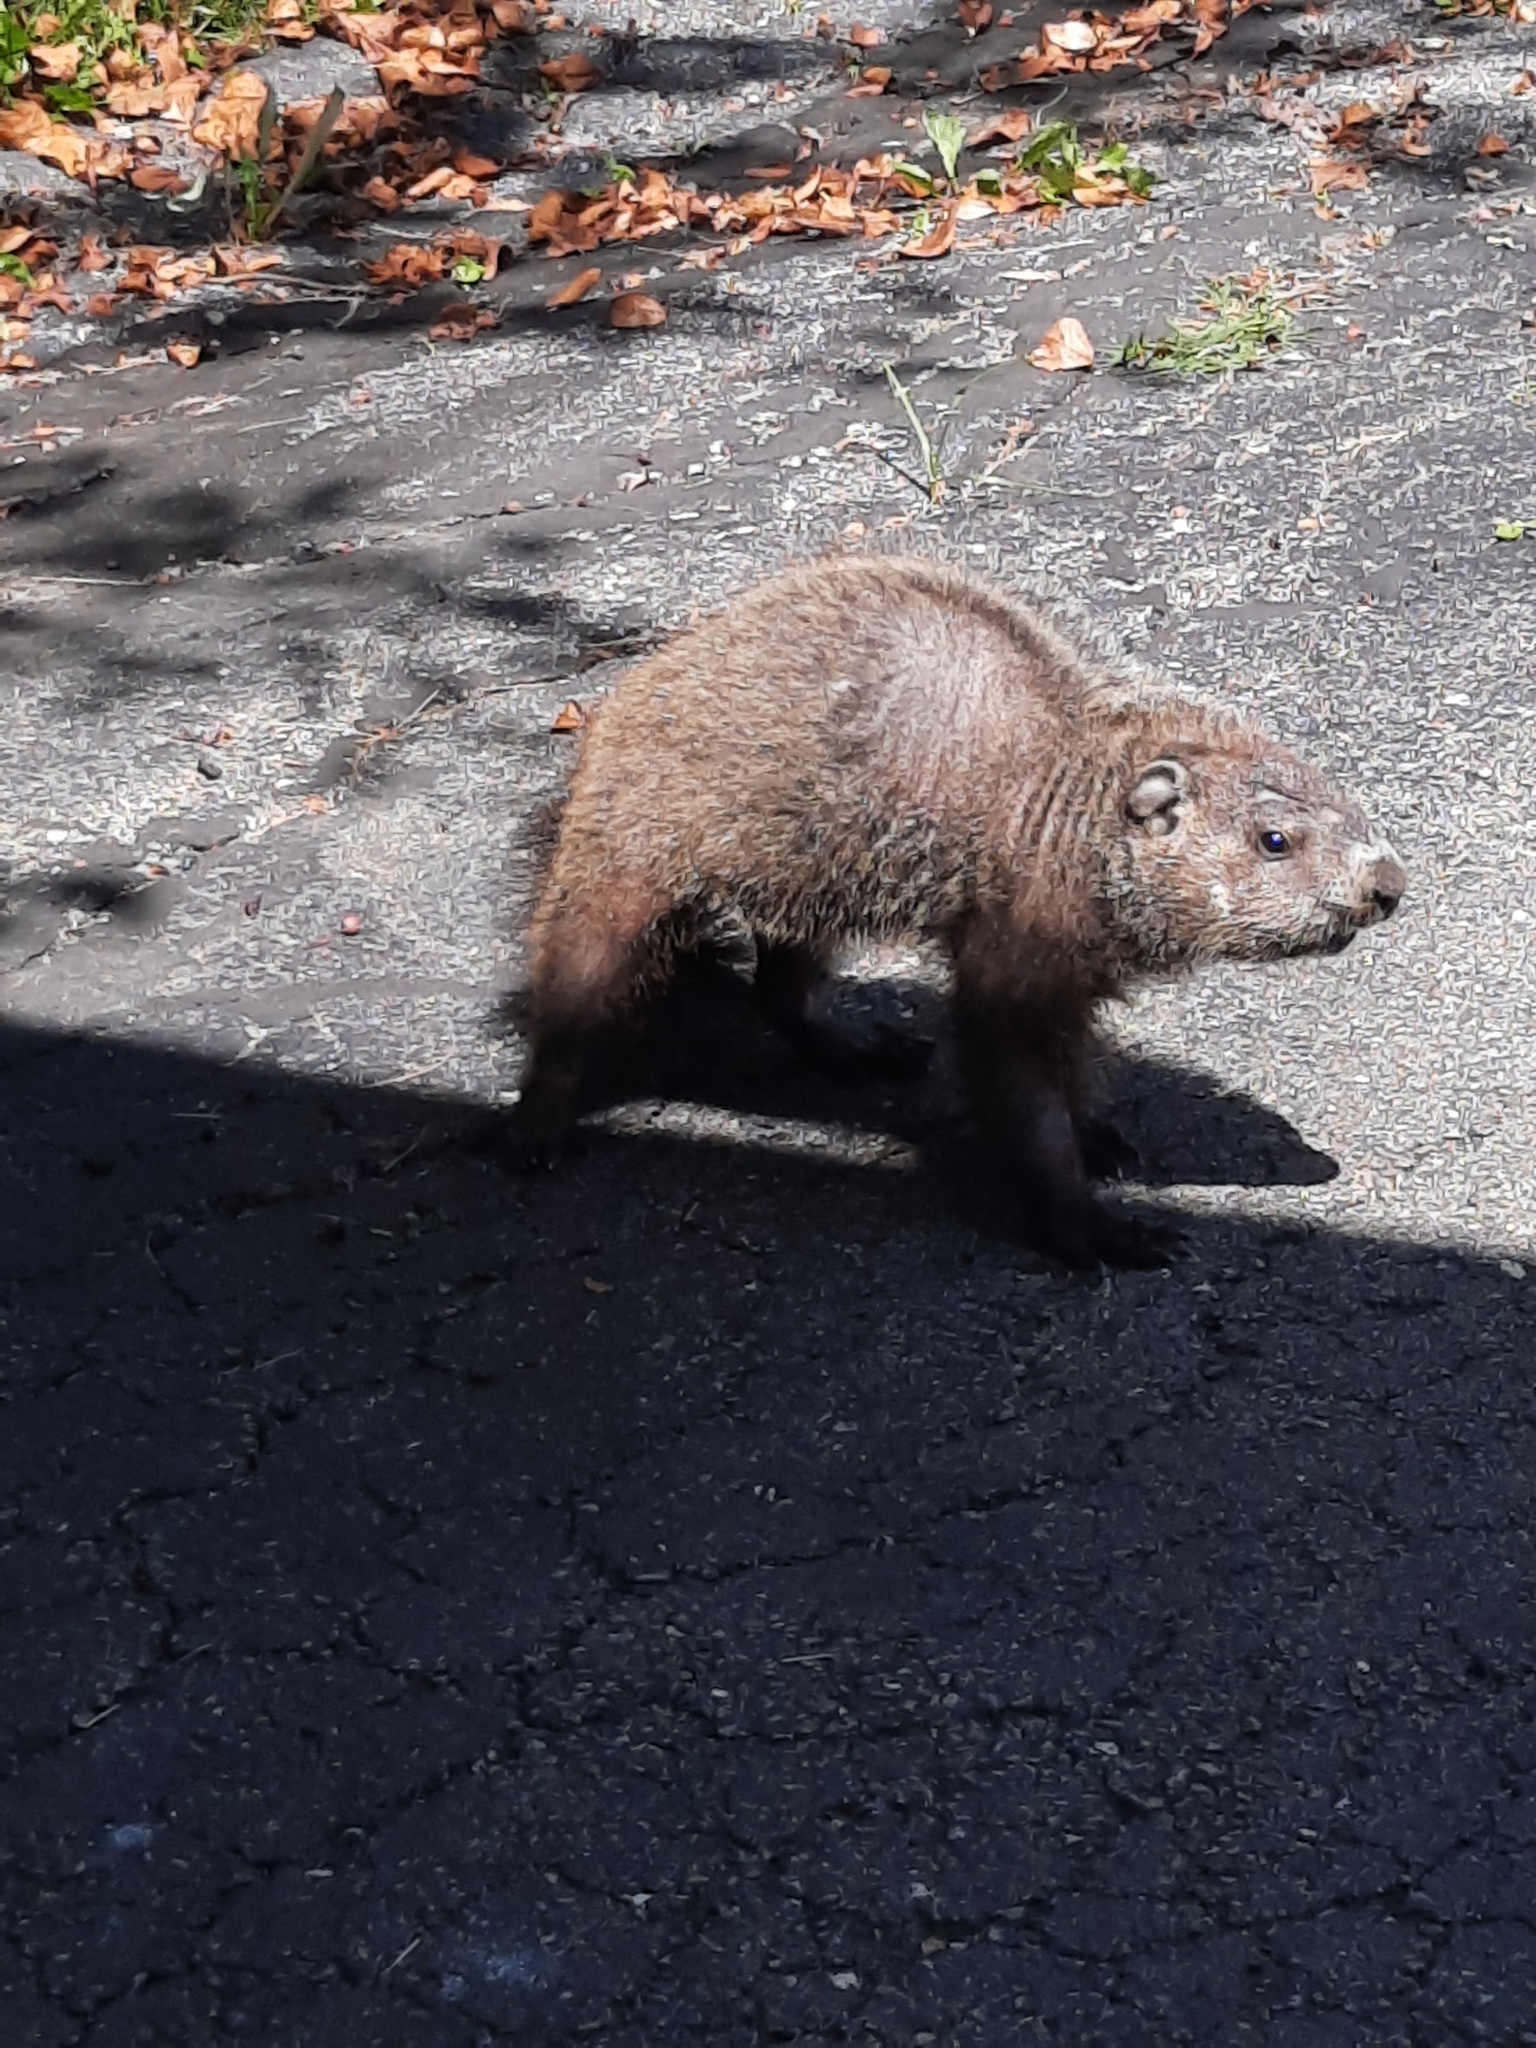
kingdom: Animalia
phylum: Chordata
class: Mammalia
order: Rodentia
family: Sciuridae
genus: Marmota
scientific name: Marmota monax
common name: Groundhog
